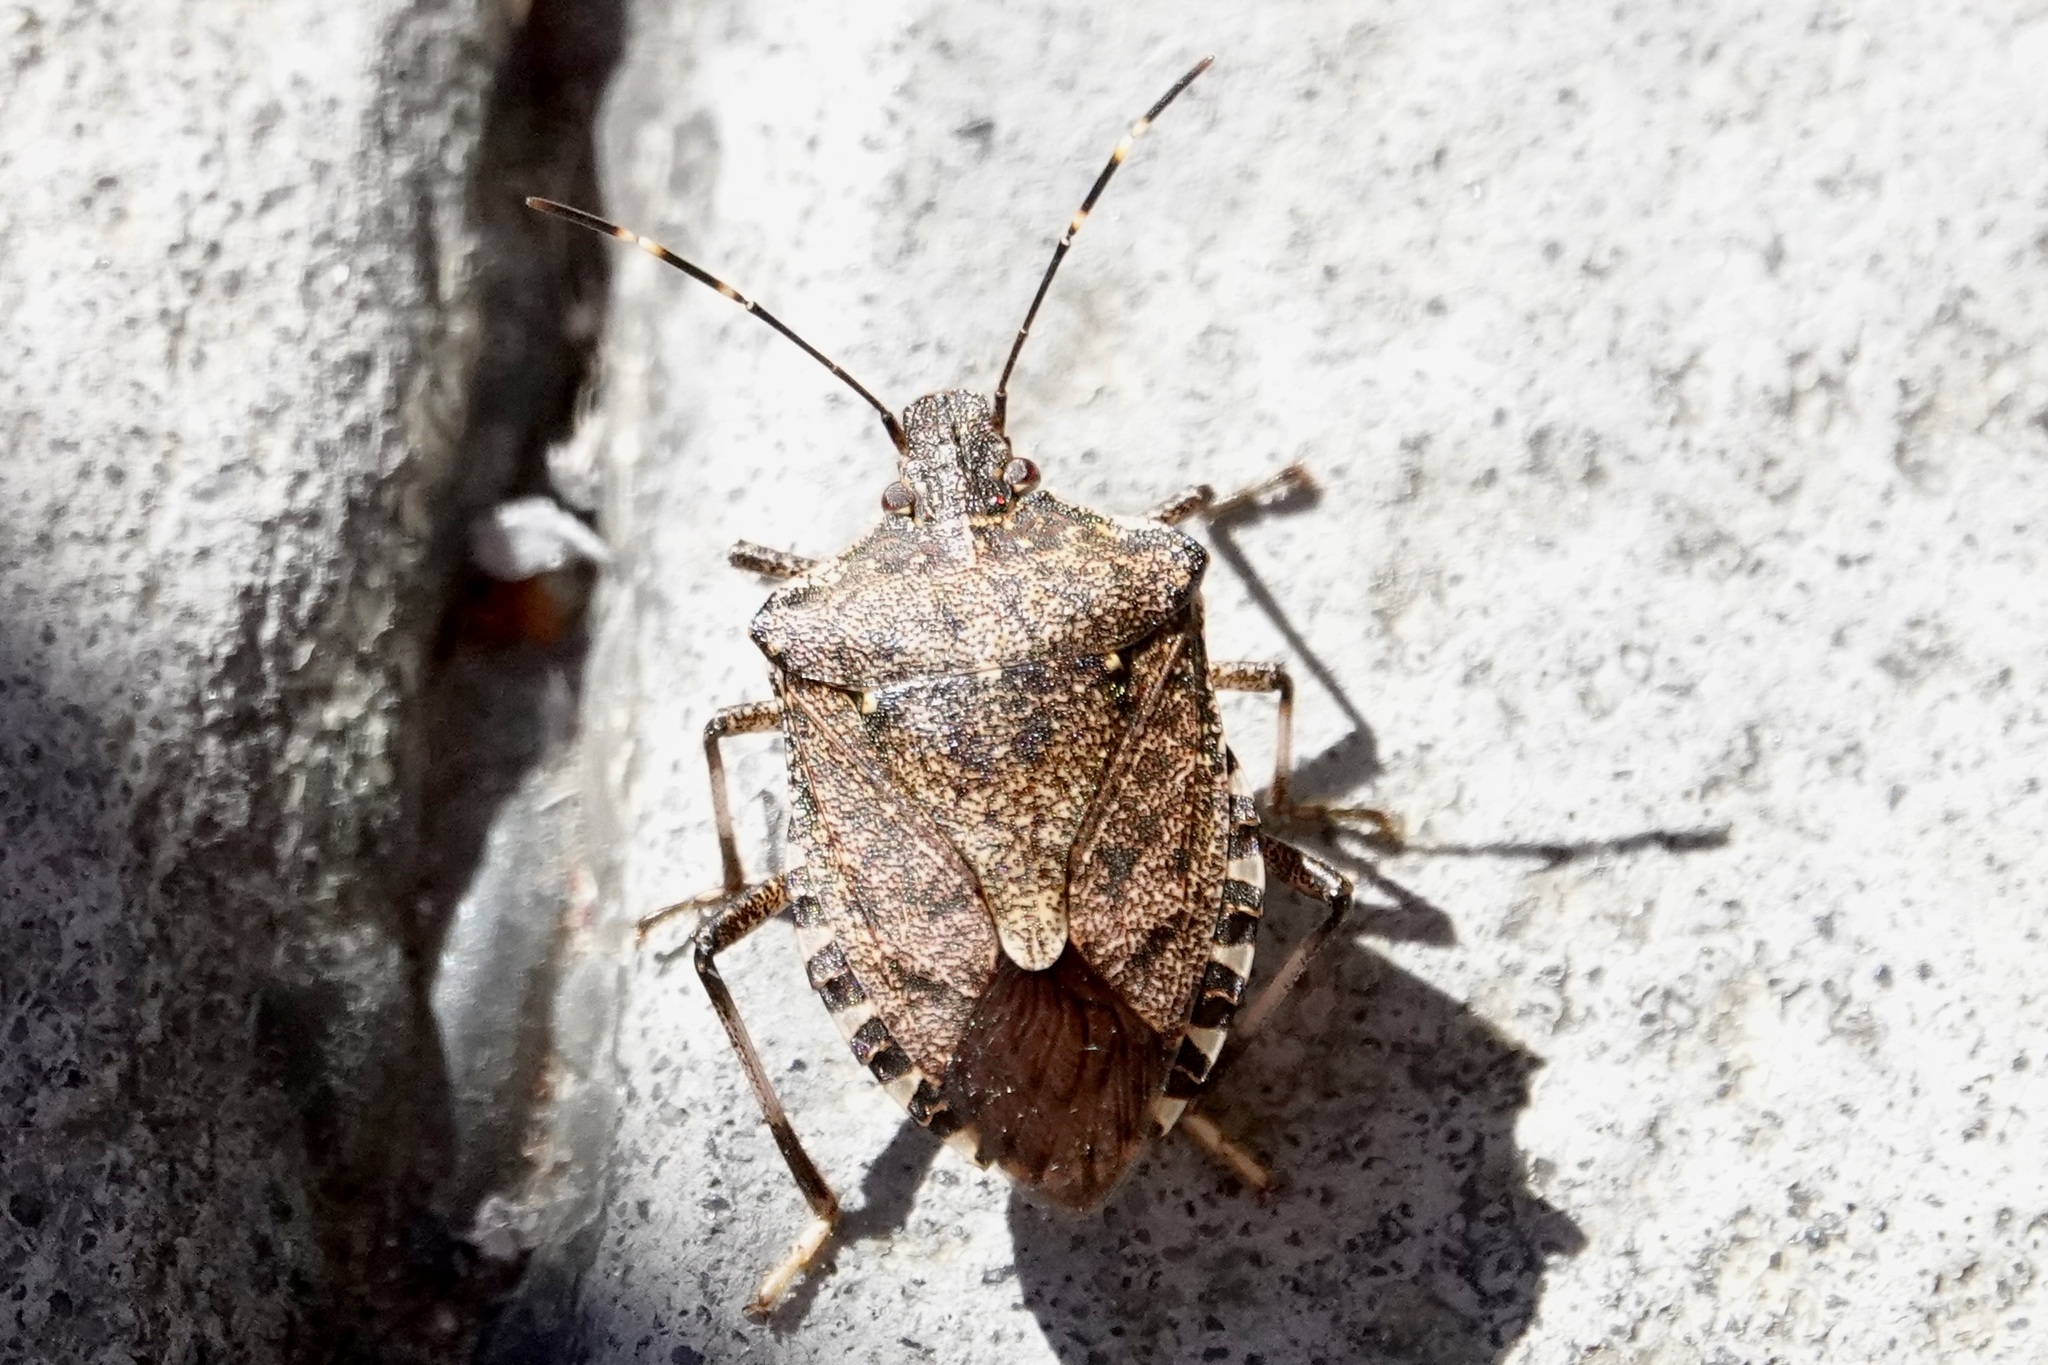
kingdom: Animalia
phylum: Arthropoda
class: Insecta
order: Hemiptera
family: Pentatomidae
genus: Halyomorpha
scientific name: Halyomorpha halys
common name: Brown marmorated stink bug
